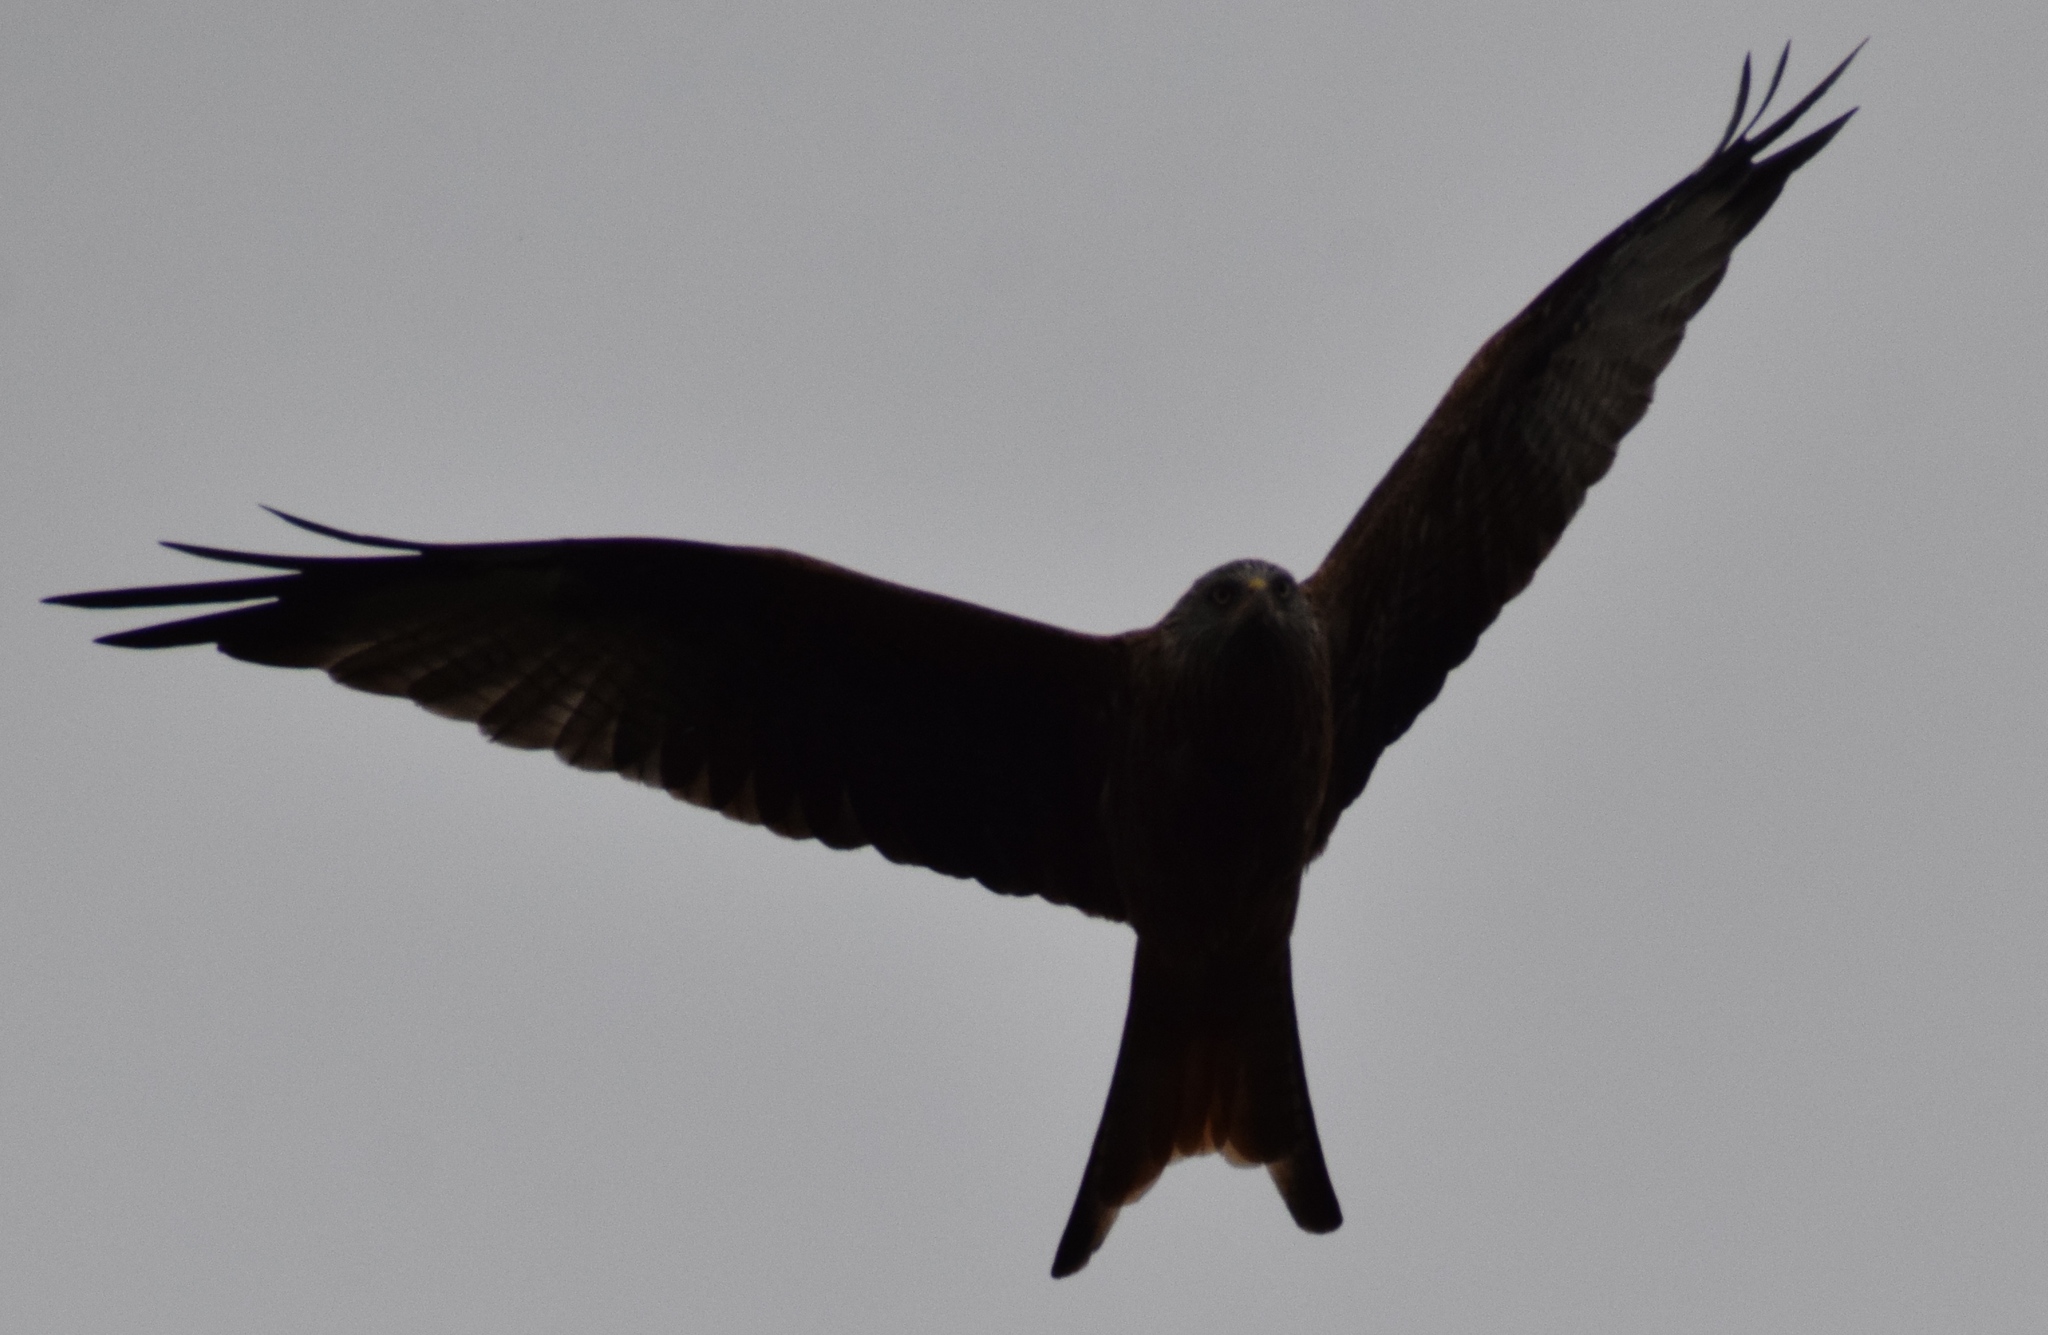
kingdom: Animalia
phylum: Chordata
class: Aves
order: Accipitriformes
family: Accipitridae
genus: Milvus
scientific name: Milvus milvus
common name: Red kite
